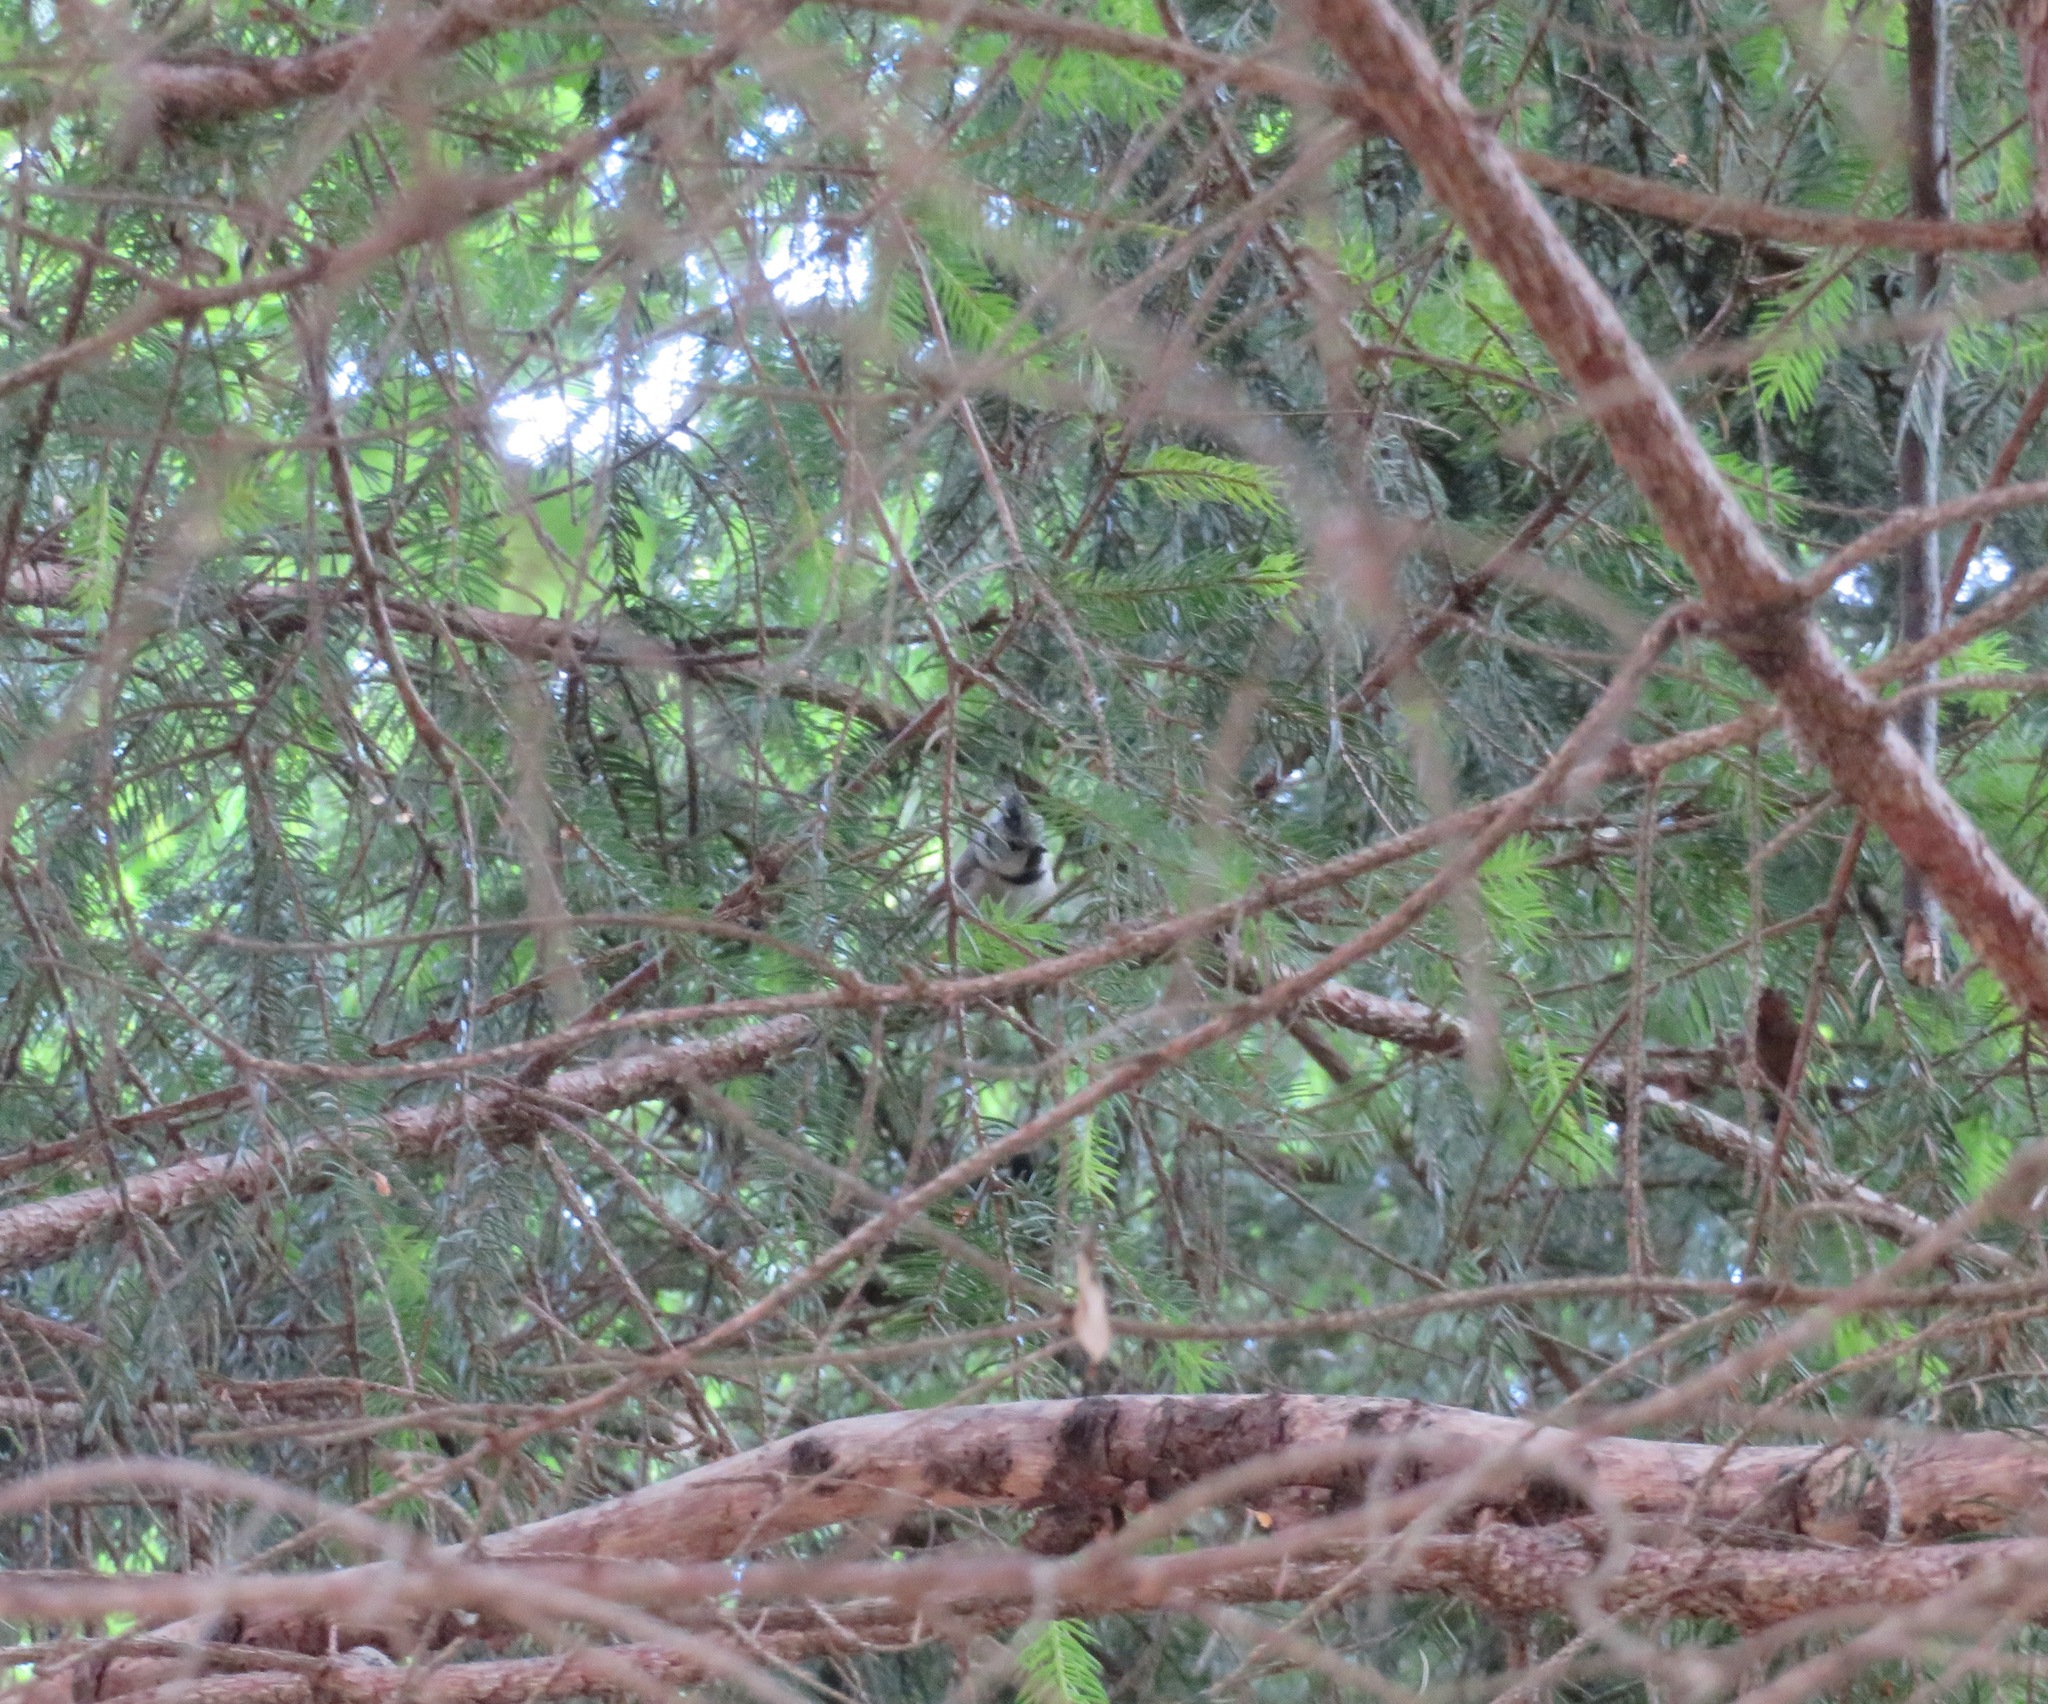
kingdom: Animalia
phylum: Chordata
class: Aves
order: Passeriformes
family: Paridae
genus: Lophophanes
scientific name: Lophophanes cristatus
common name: European crested tit
